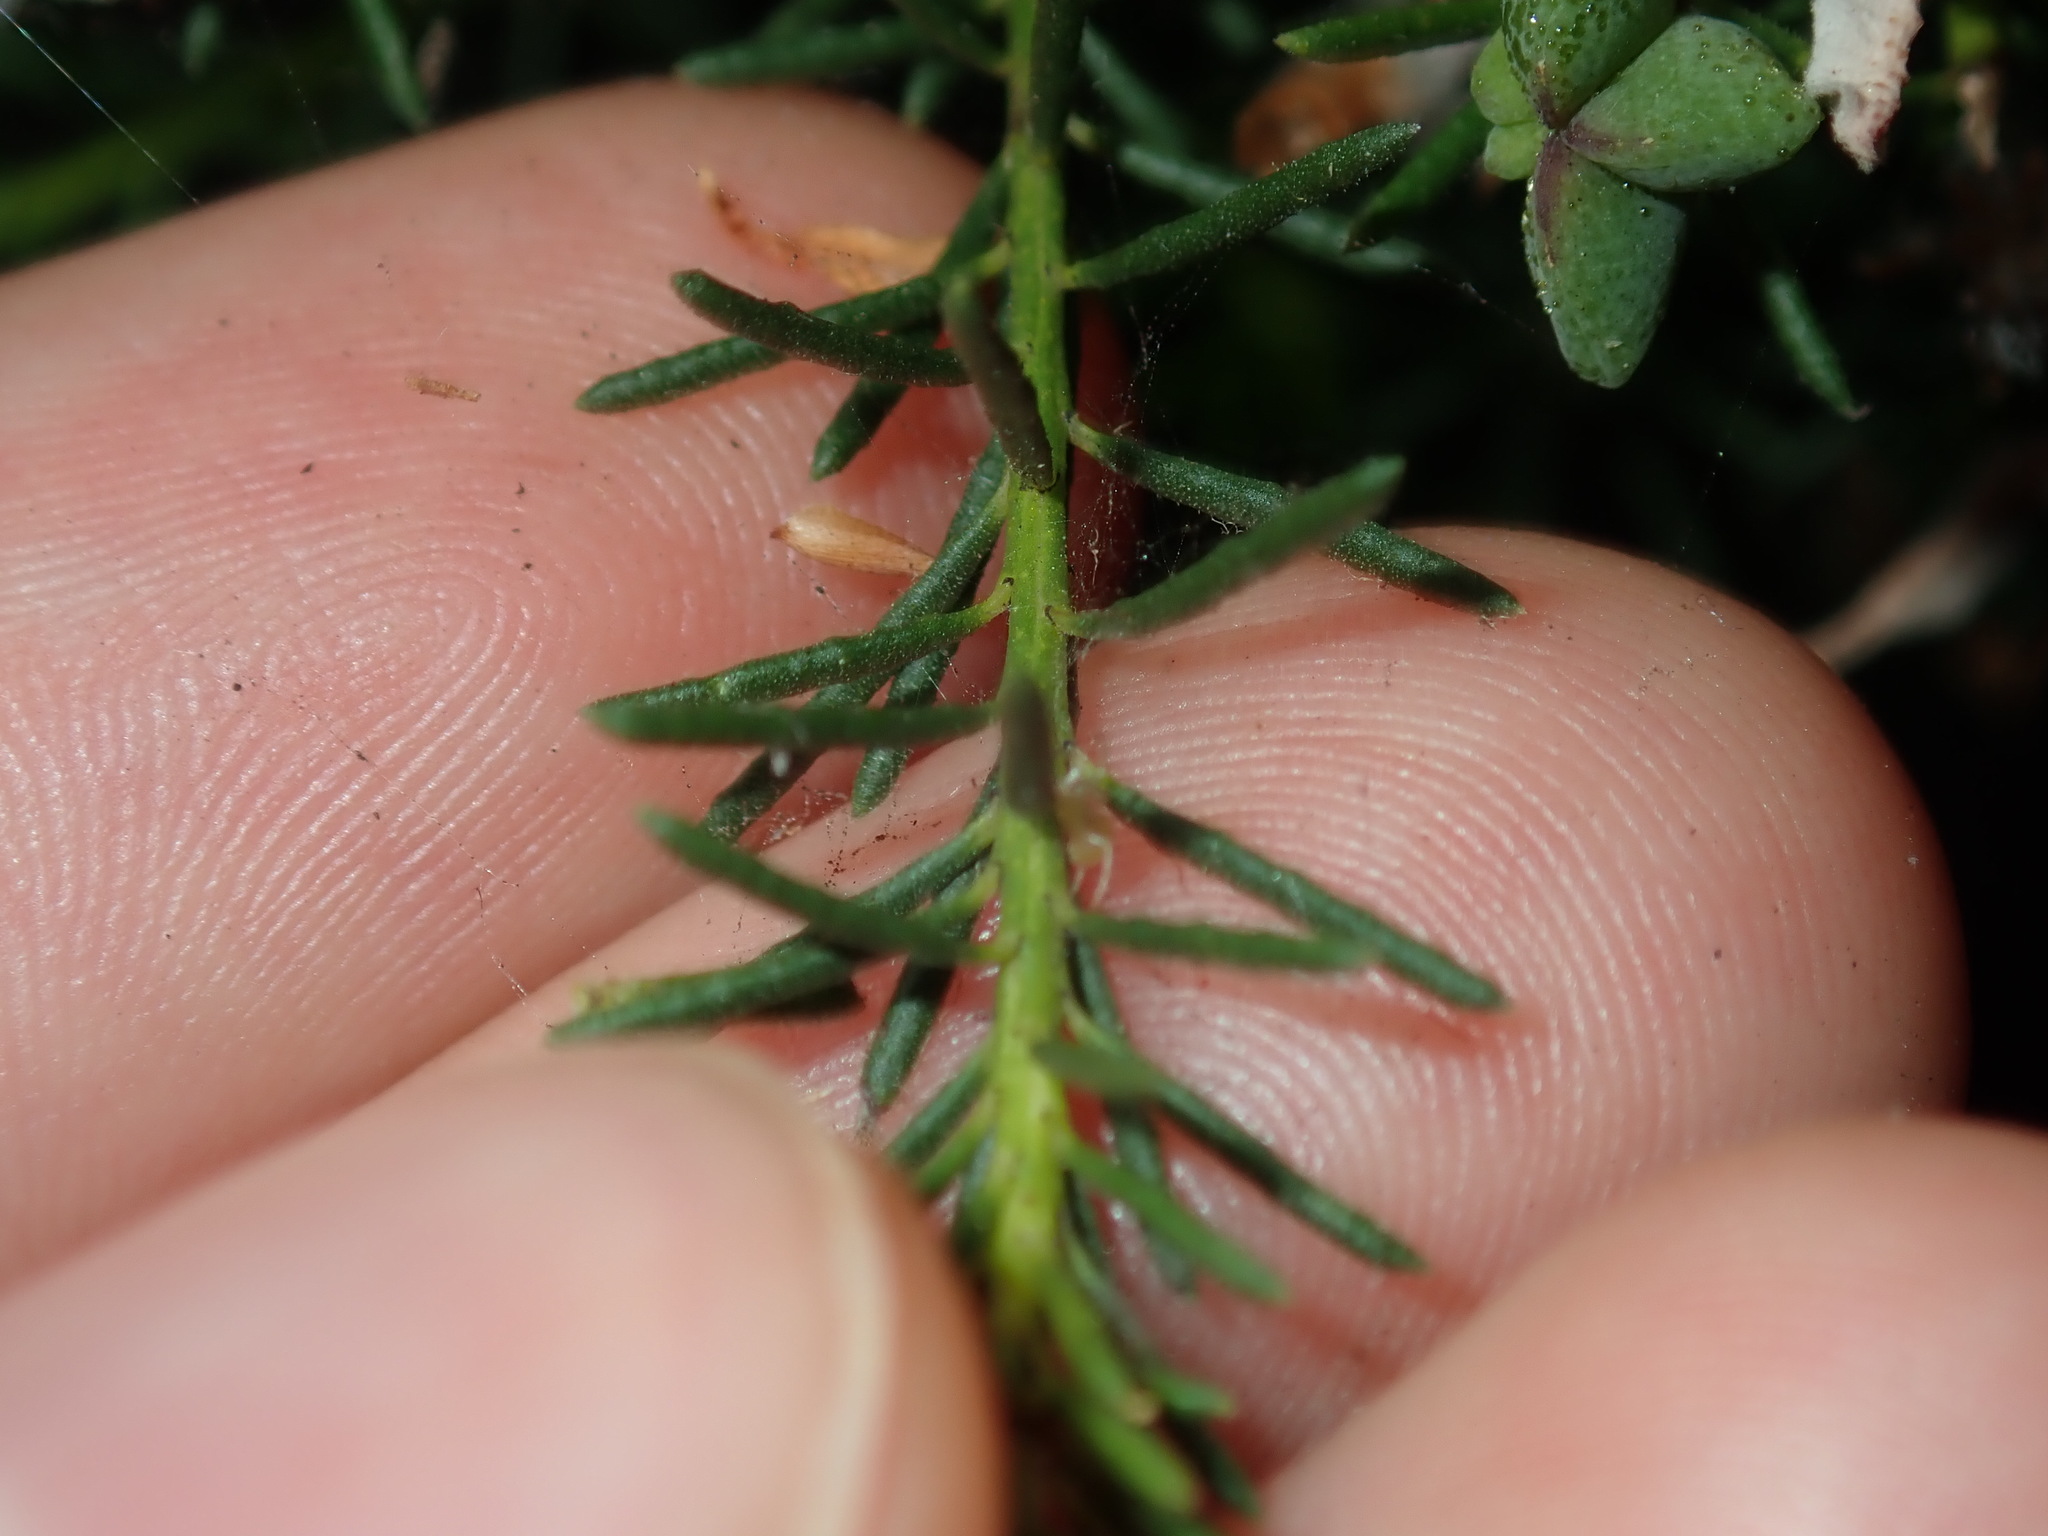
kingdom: Plantae
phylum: Tracheophyta
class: Magnoliopsida
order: Sapindales
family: Rutaceae
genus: Philotheca
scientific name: Philotheca salsolifolia
